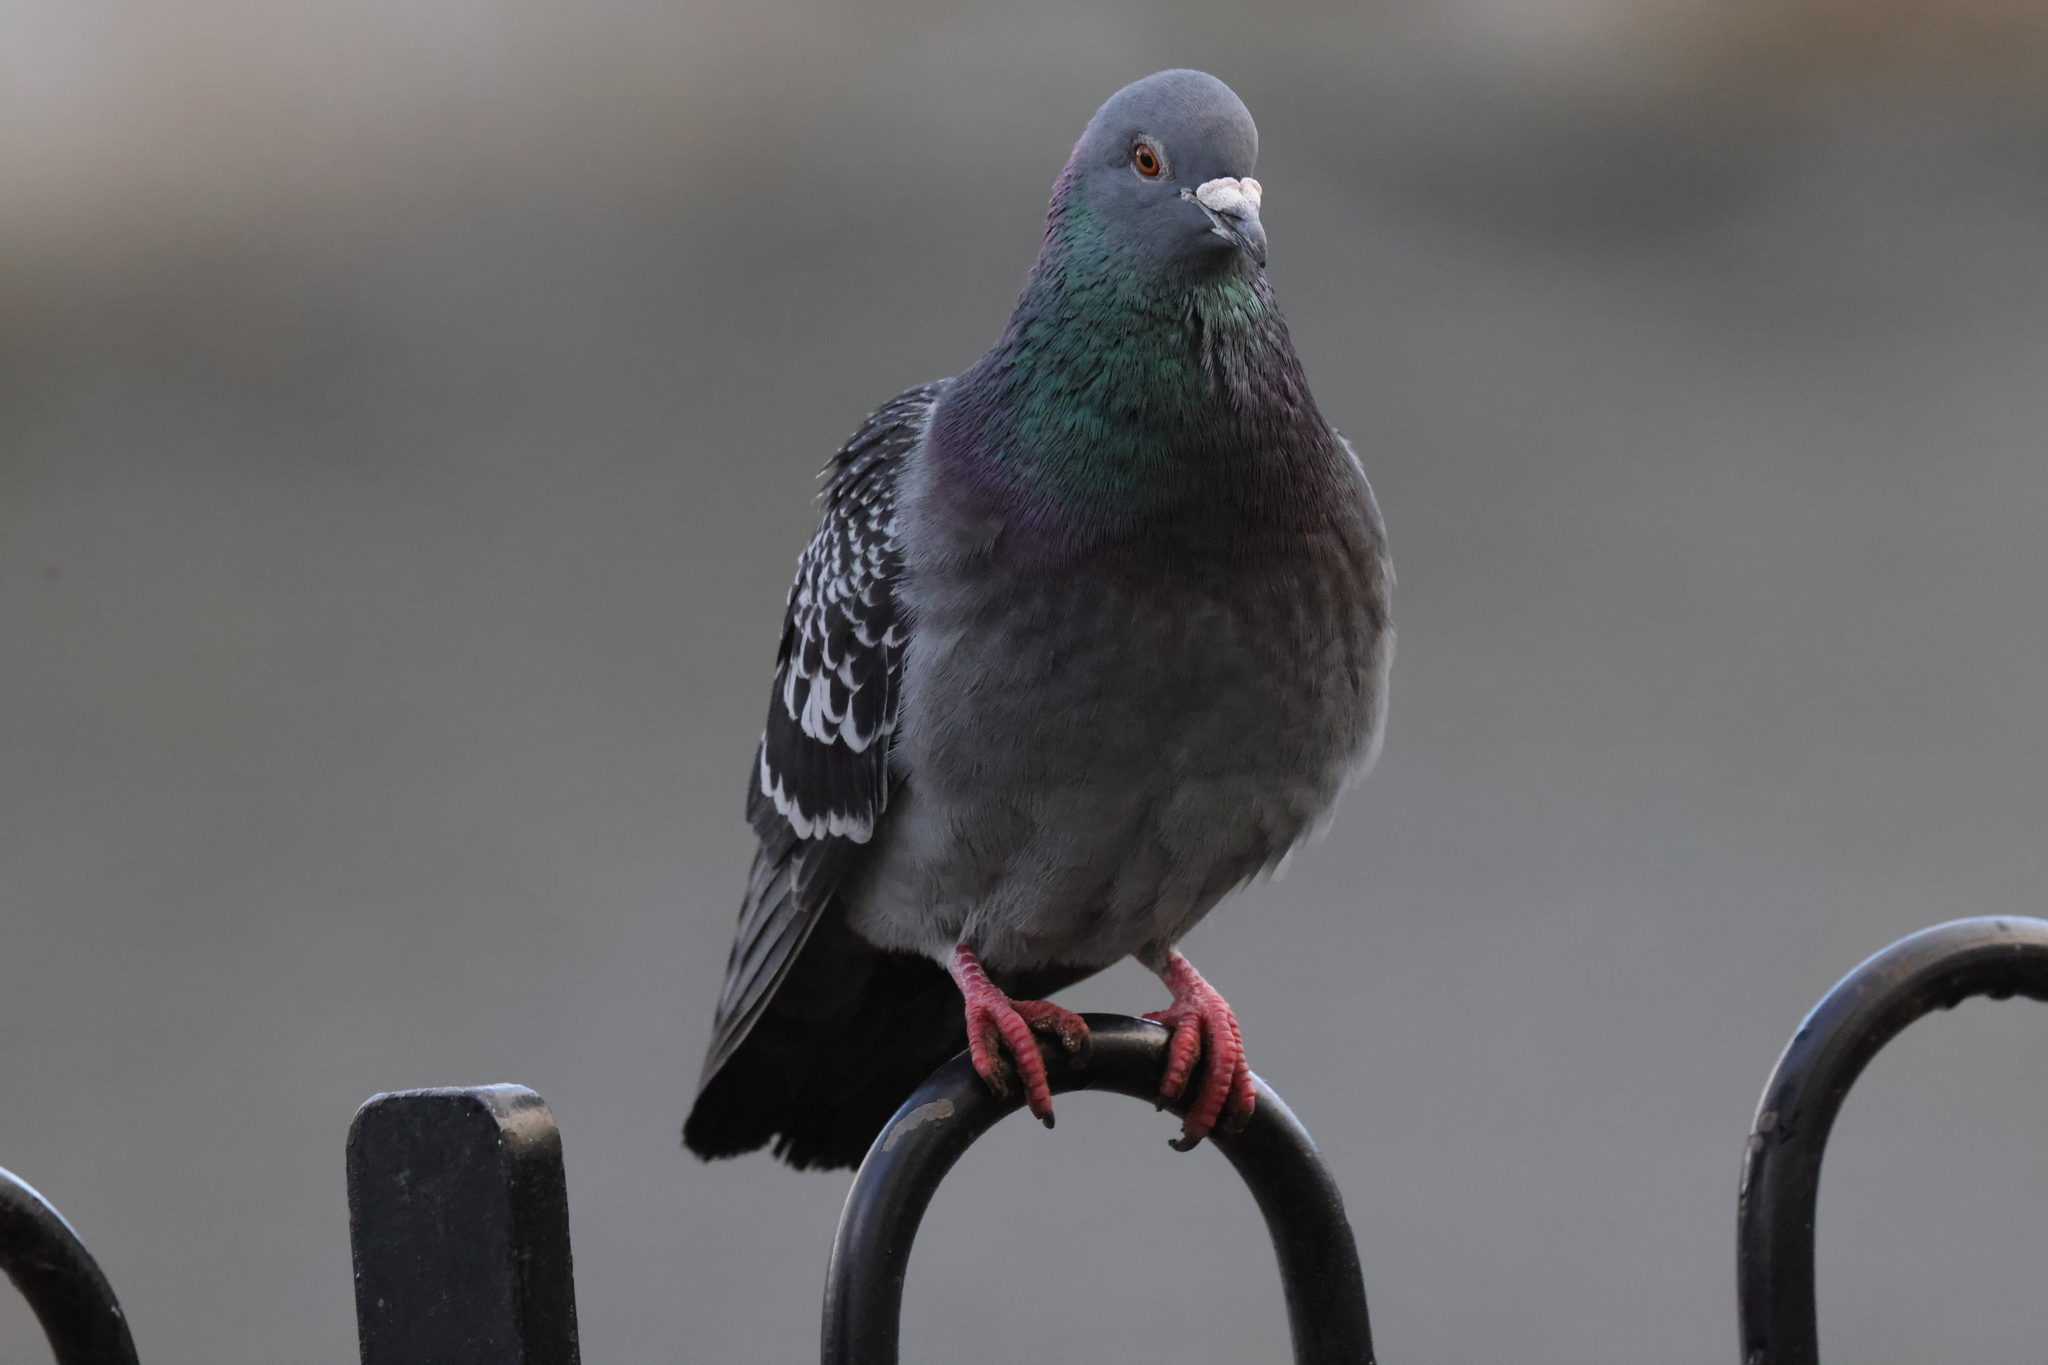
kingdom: Animalia
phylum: Chordata
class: Aves
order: Columbiformes
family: Columbidae
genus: Columba
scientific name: Columba livia
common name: Rock pigeon
